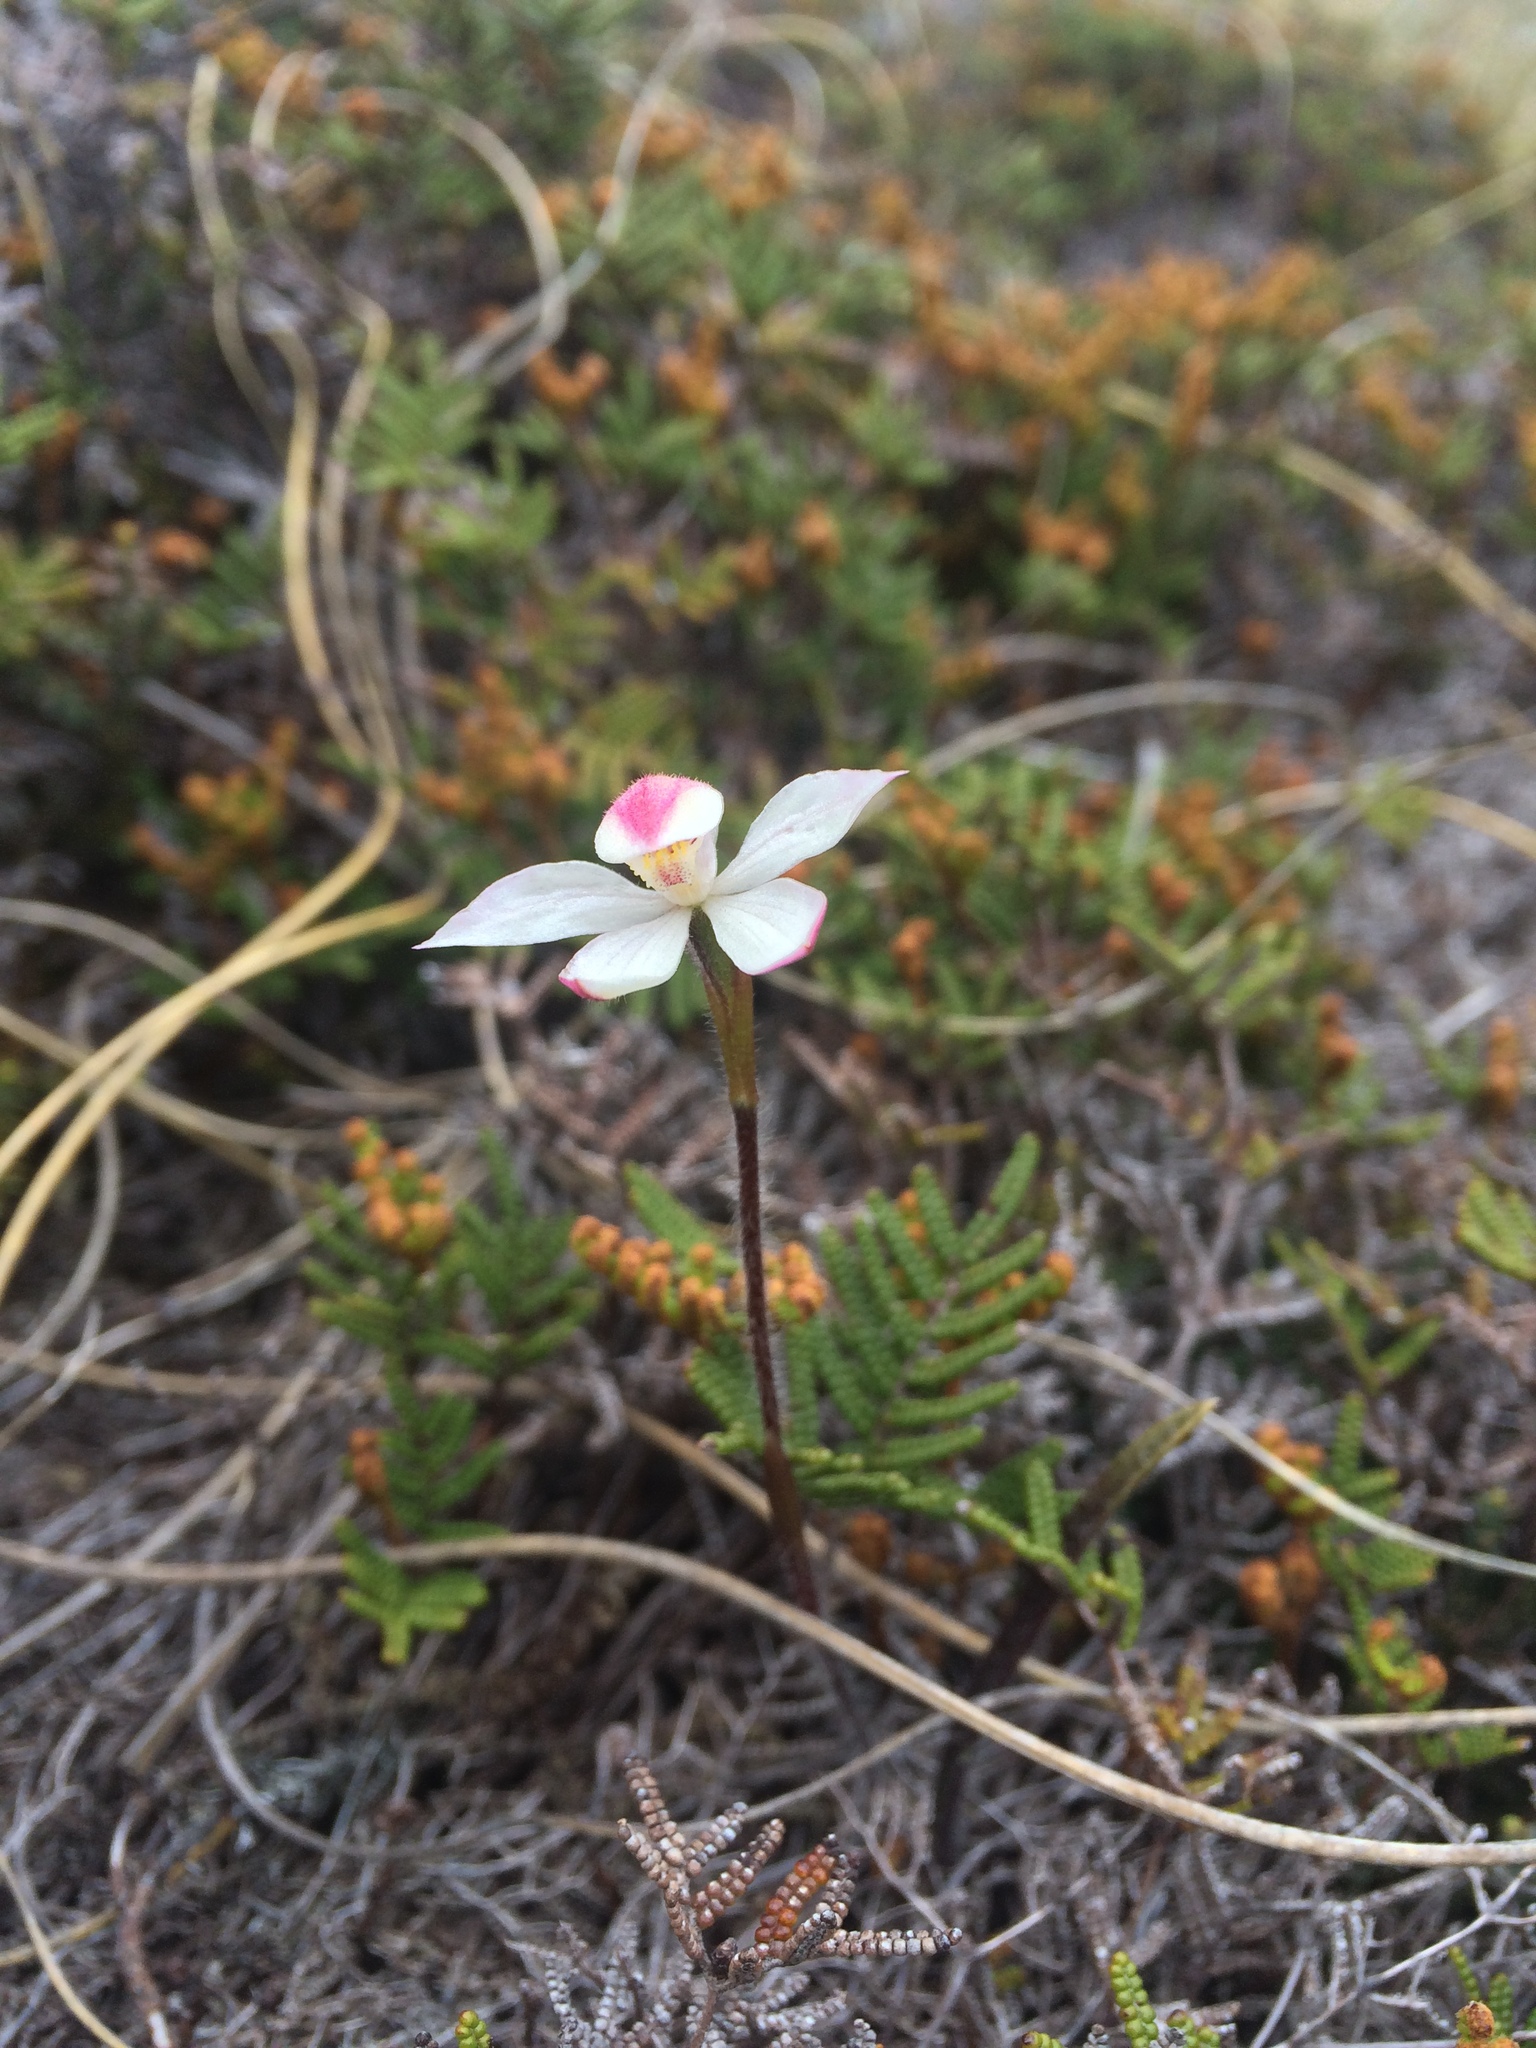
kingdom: Plantae
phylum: Tracheophyta
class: Liliopsida
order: Asparagales
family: Orchidaceae
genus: Caladenia
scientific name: Caladenia lyallii
